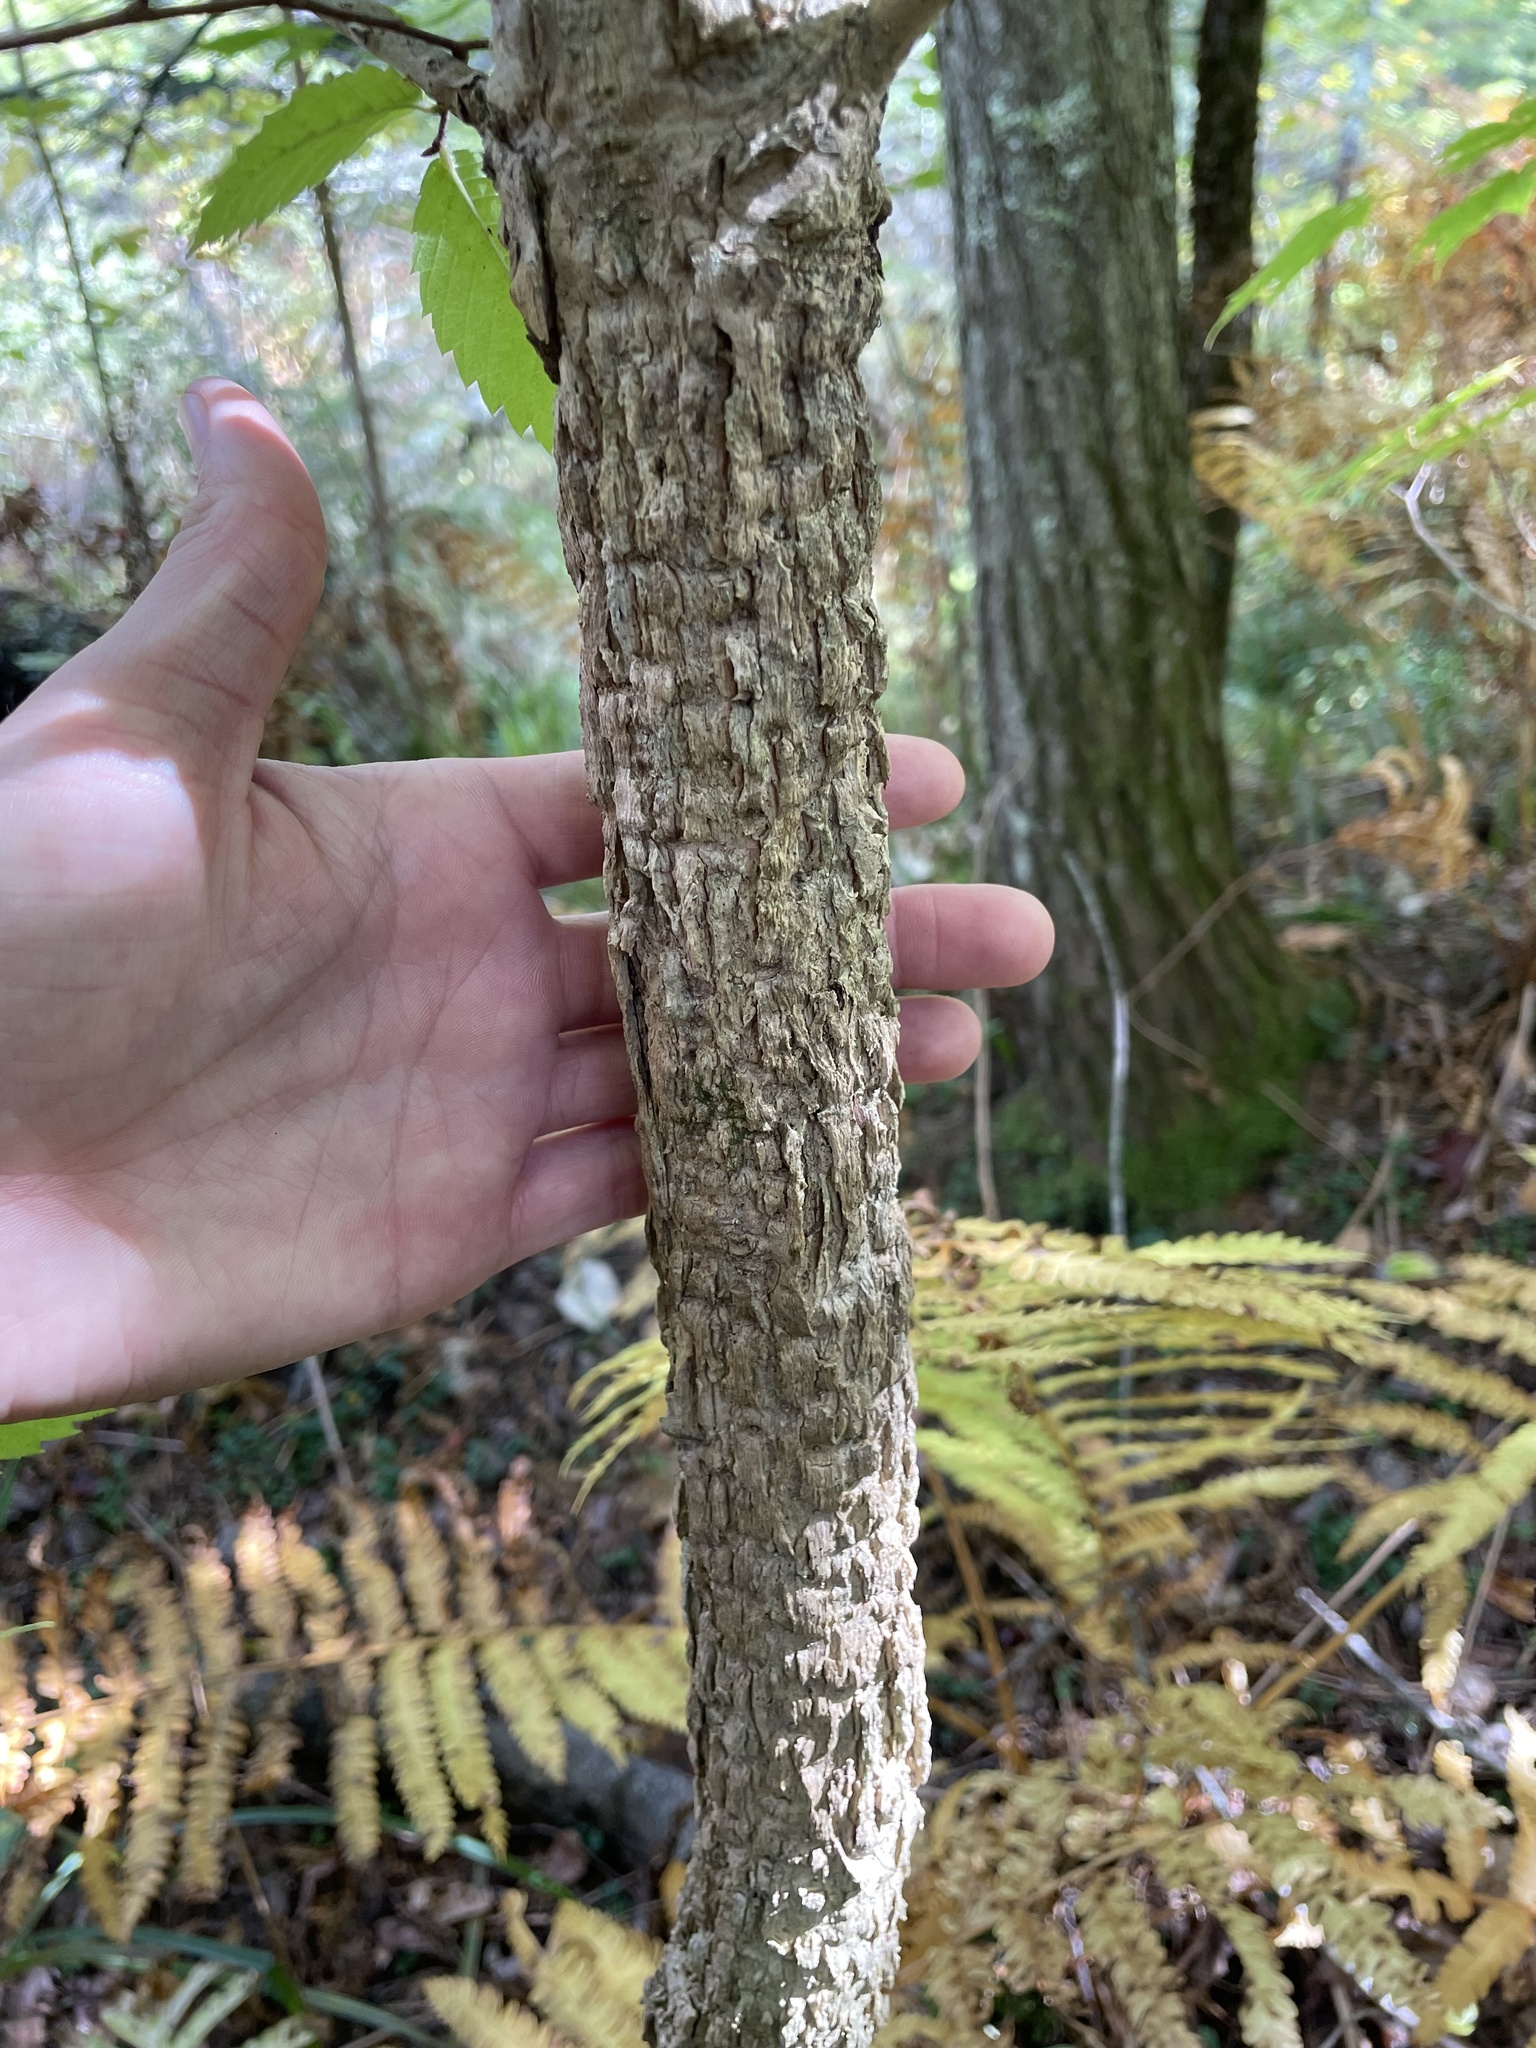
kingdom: Plantae
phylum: Tracheophyta
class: Magnoliopsida
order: Lamiales
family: Oleaceae
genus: Fraxinus
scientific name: Fraxinus nigra
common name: Black ash
